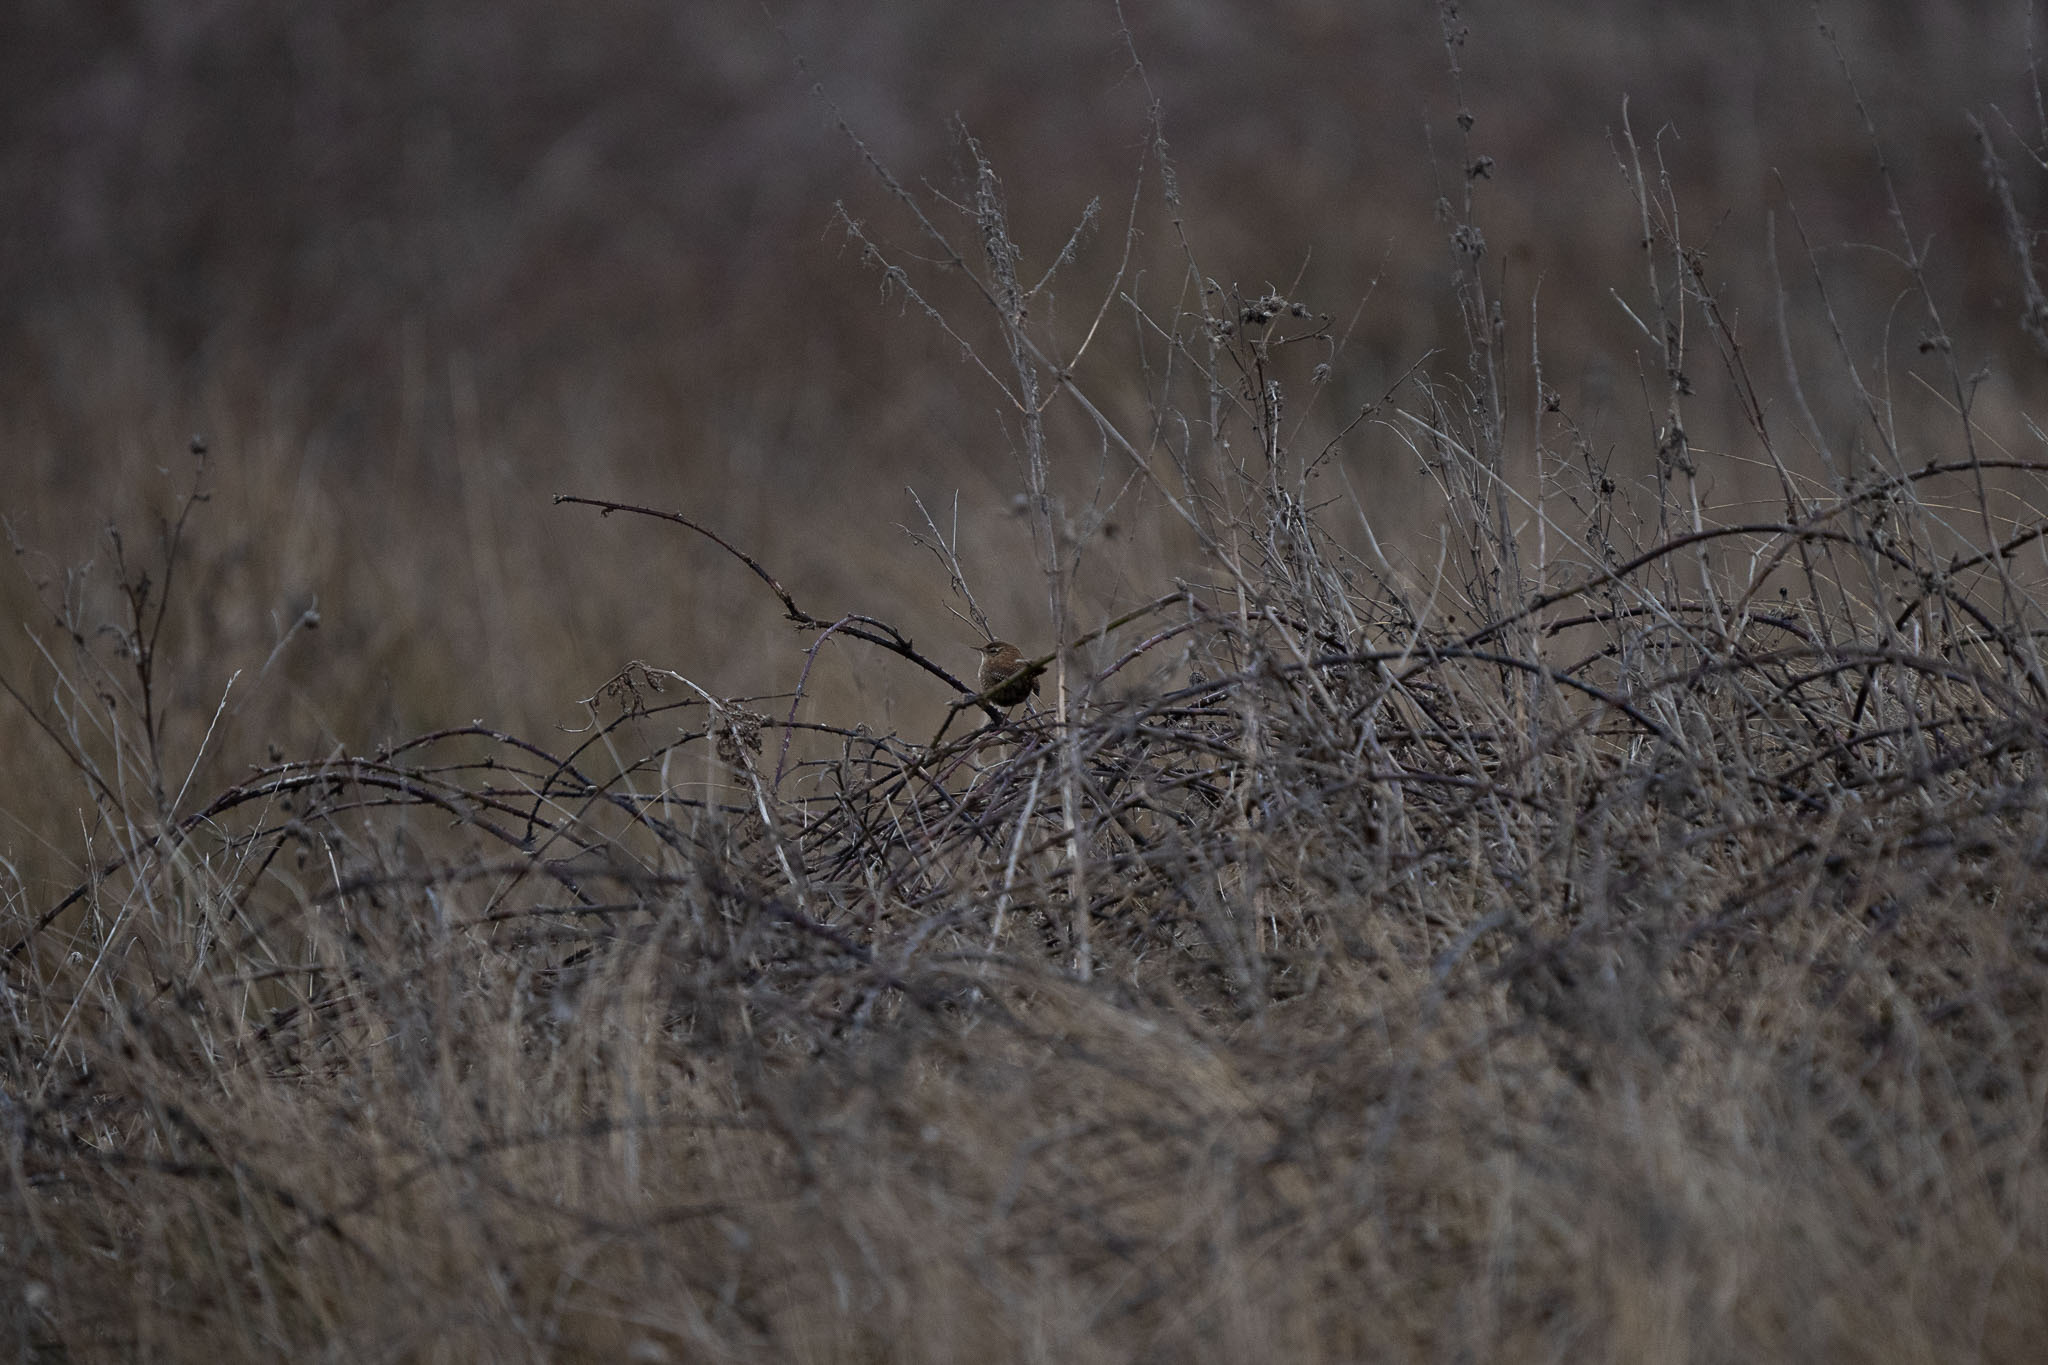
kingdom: Animalia
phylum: Chordata
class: Aves
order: Passeriformes
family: Troglodytidae
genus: Troglodytes
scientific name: Troglodytes troglodytes
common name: Eurasian wren
